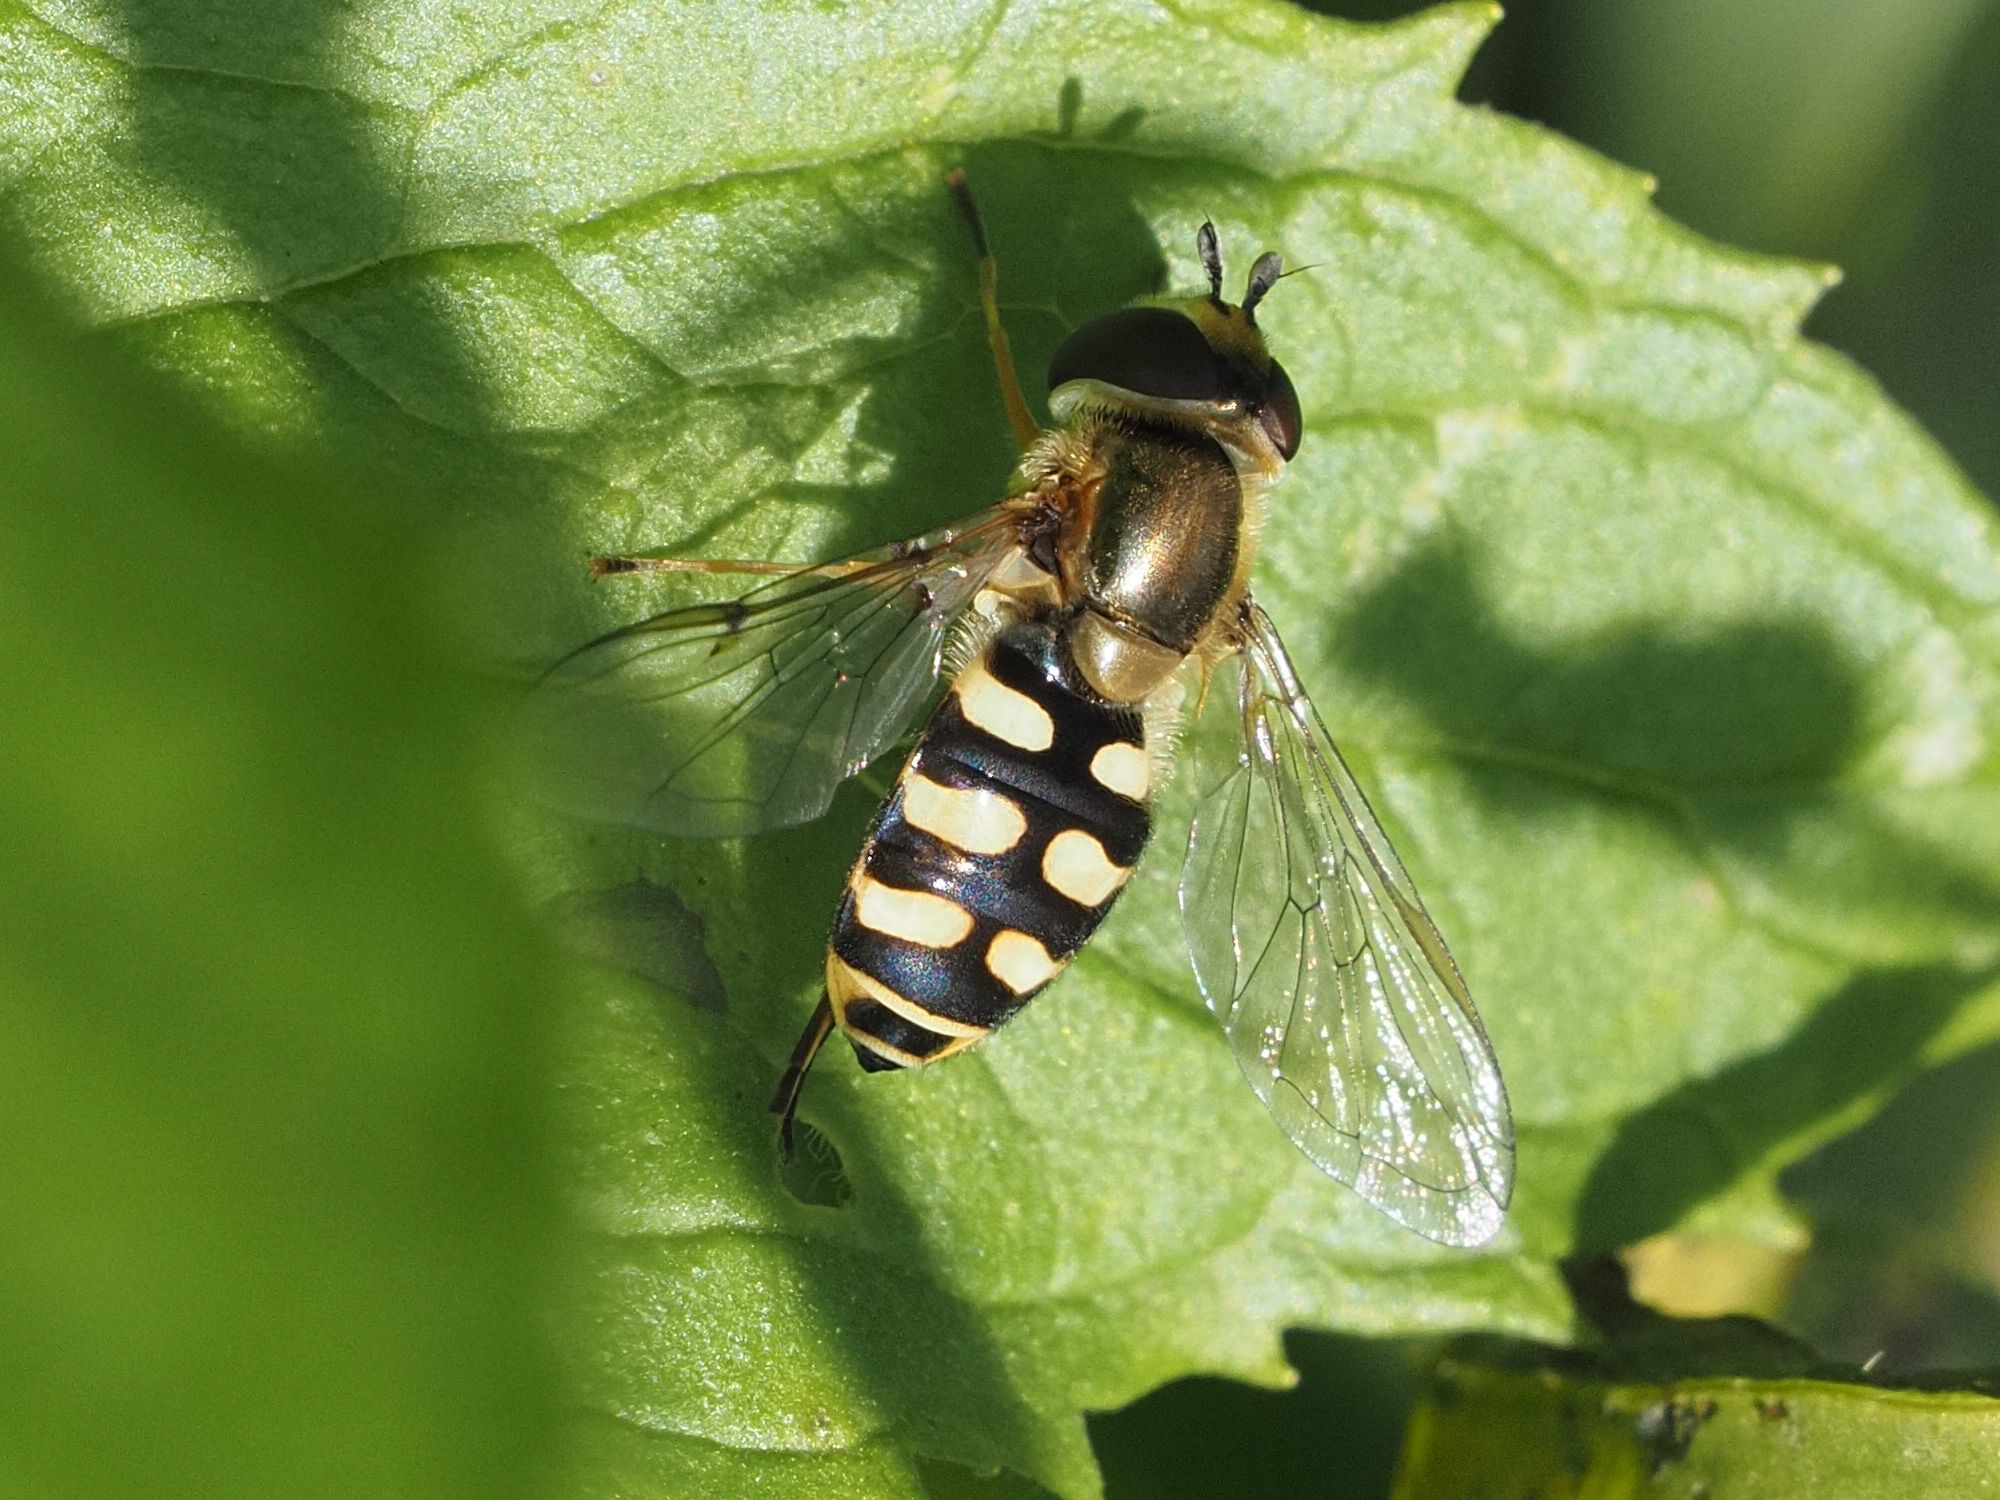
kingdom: Animalia
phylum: Arthropoda
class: Insecta
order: Diptera
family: Syrphidae
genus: Eupeodes
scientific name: Eupeodes corollae
